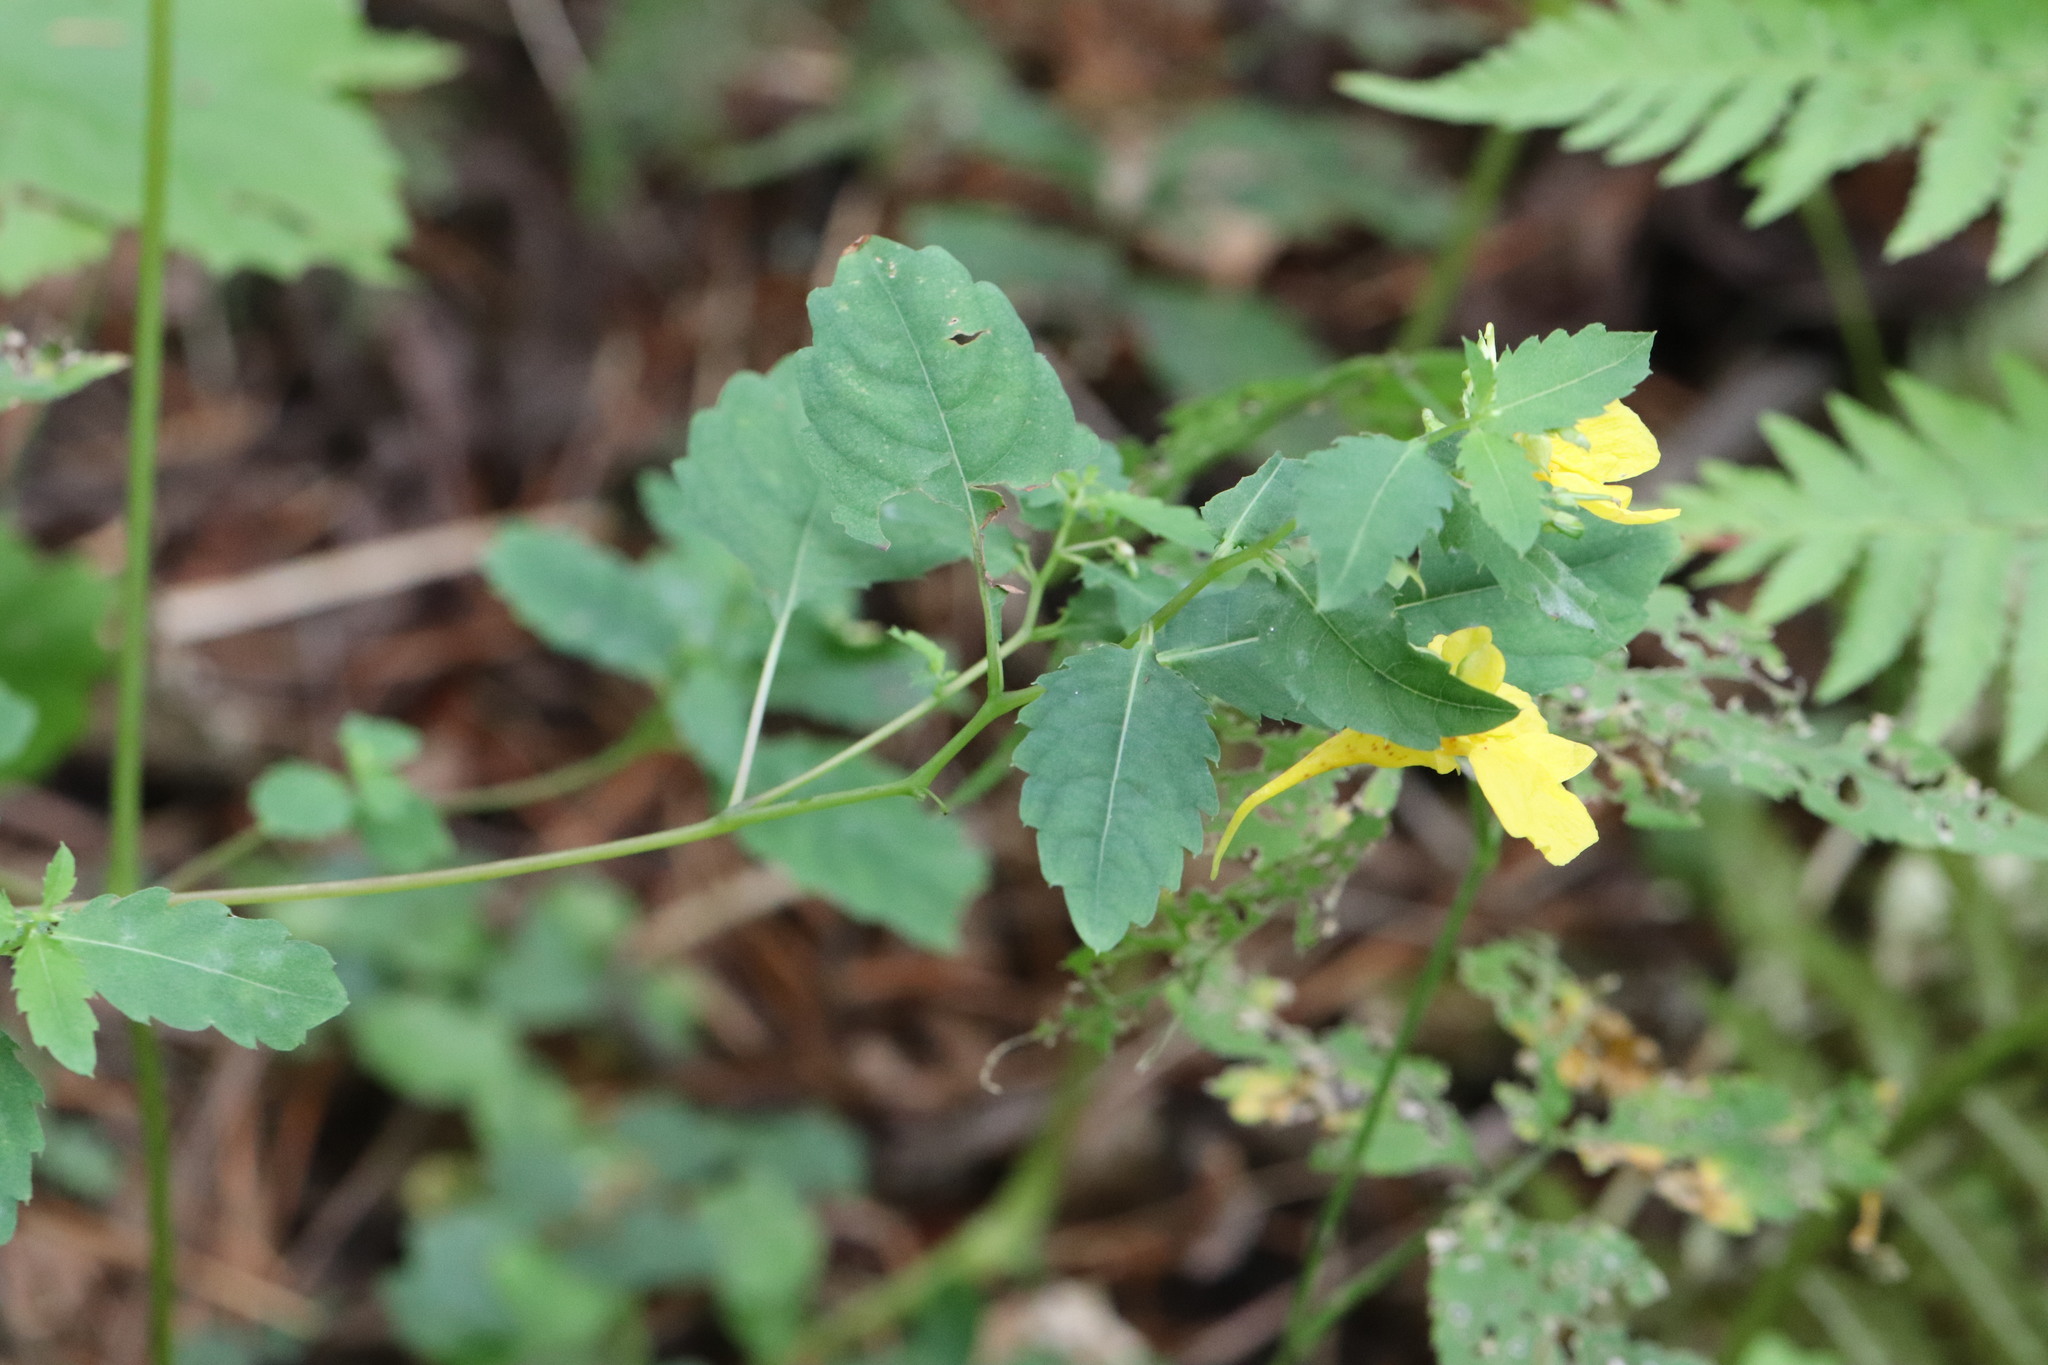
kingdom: Plantae
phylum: Tracheophyta
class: Magnoliopsida
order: Ericales
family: Balsaminaceae
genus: Impatiens
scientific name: Impatiens noli-tangere
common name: Touch-me-not balsam
